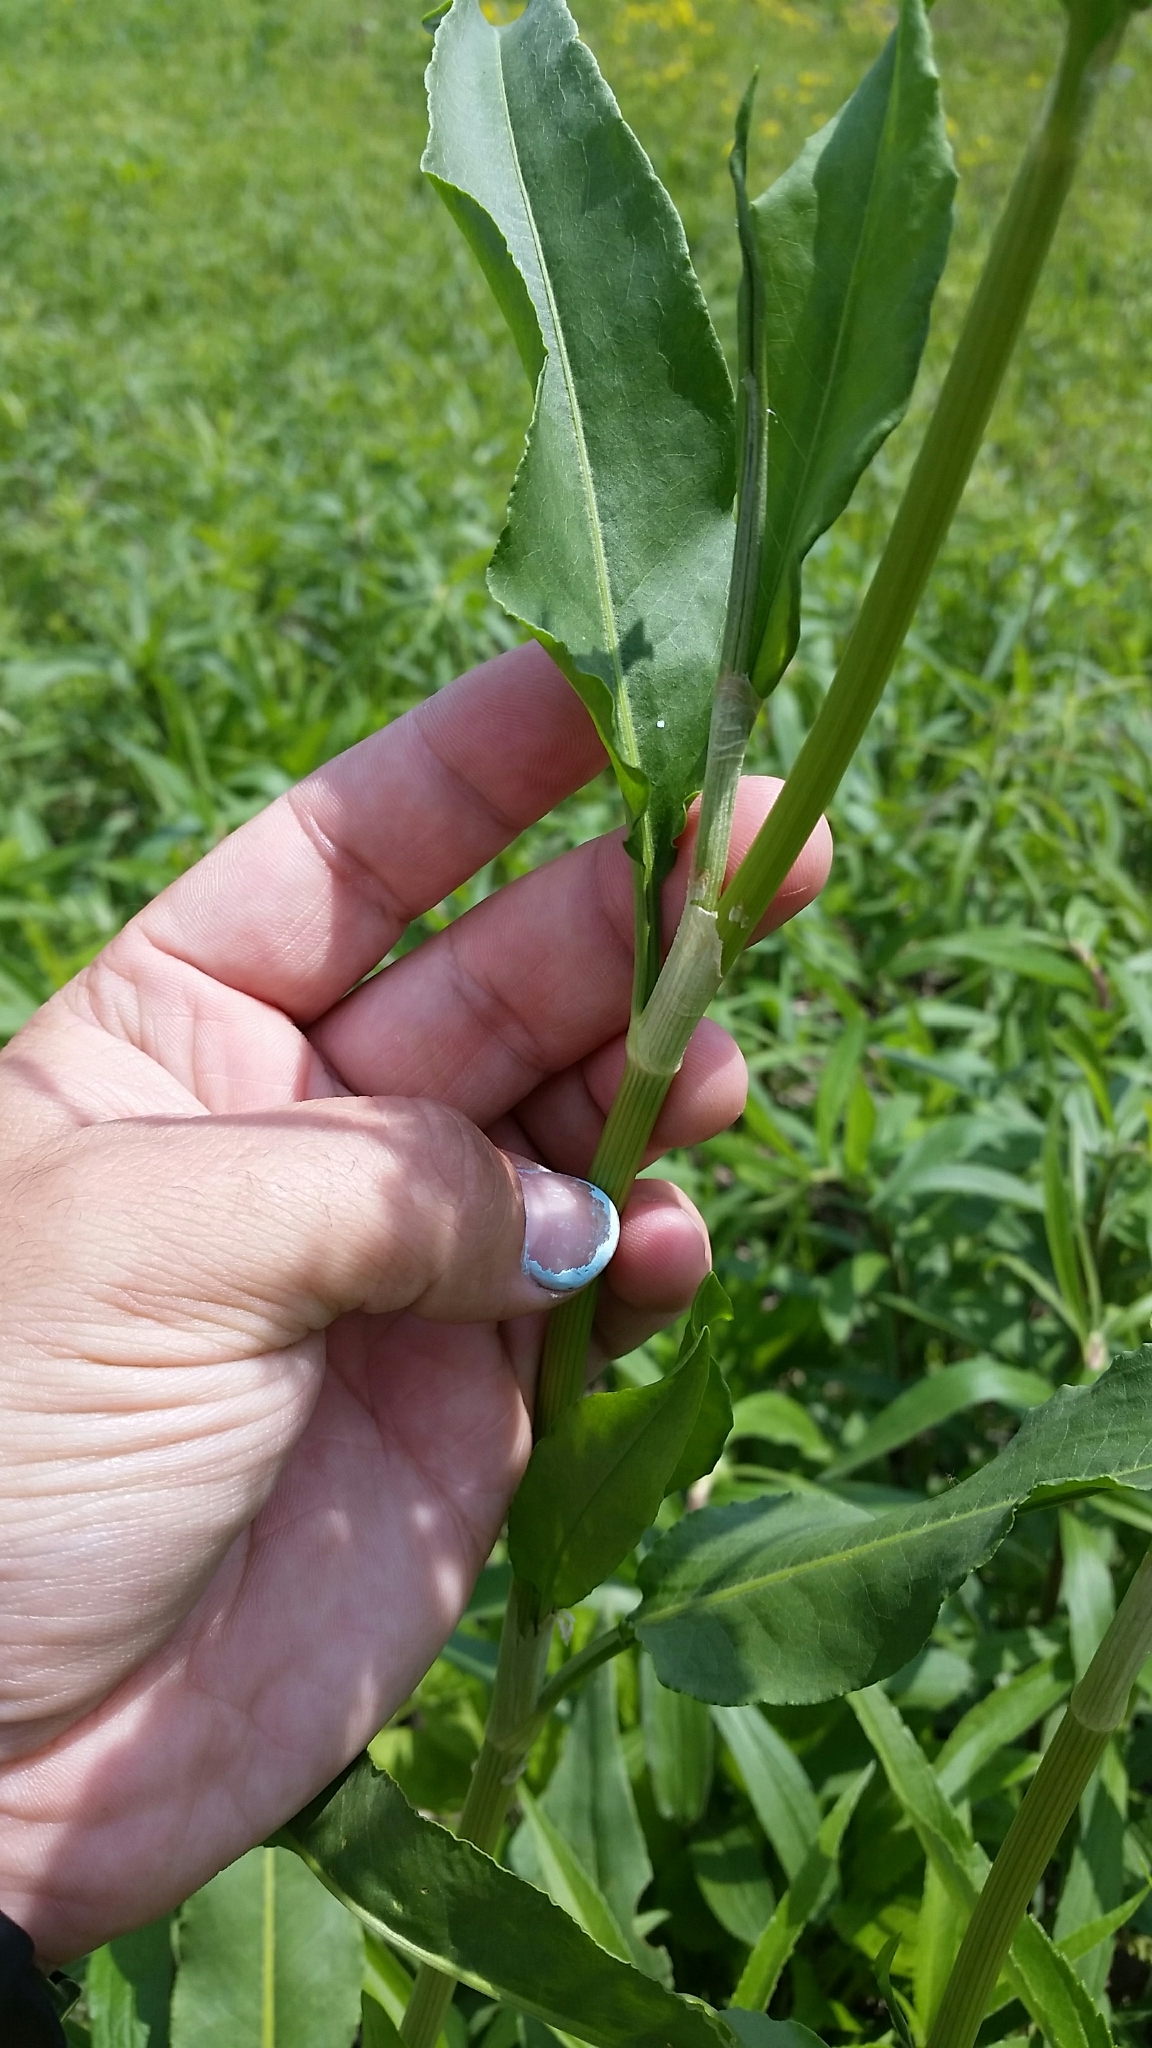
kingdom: Plantae
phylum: Tracheophyta
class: Magnoliopsida
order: Caryophyllales
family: Polygonaceae
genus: Rumex
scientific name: Rumex altissimus
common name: Smooth dock
